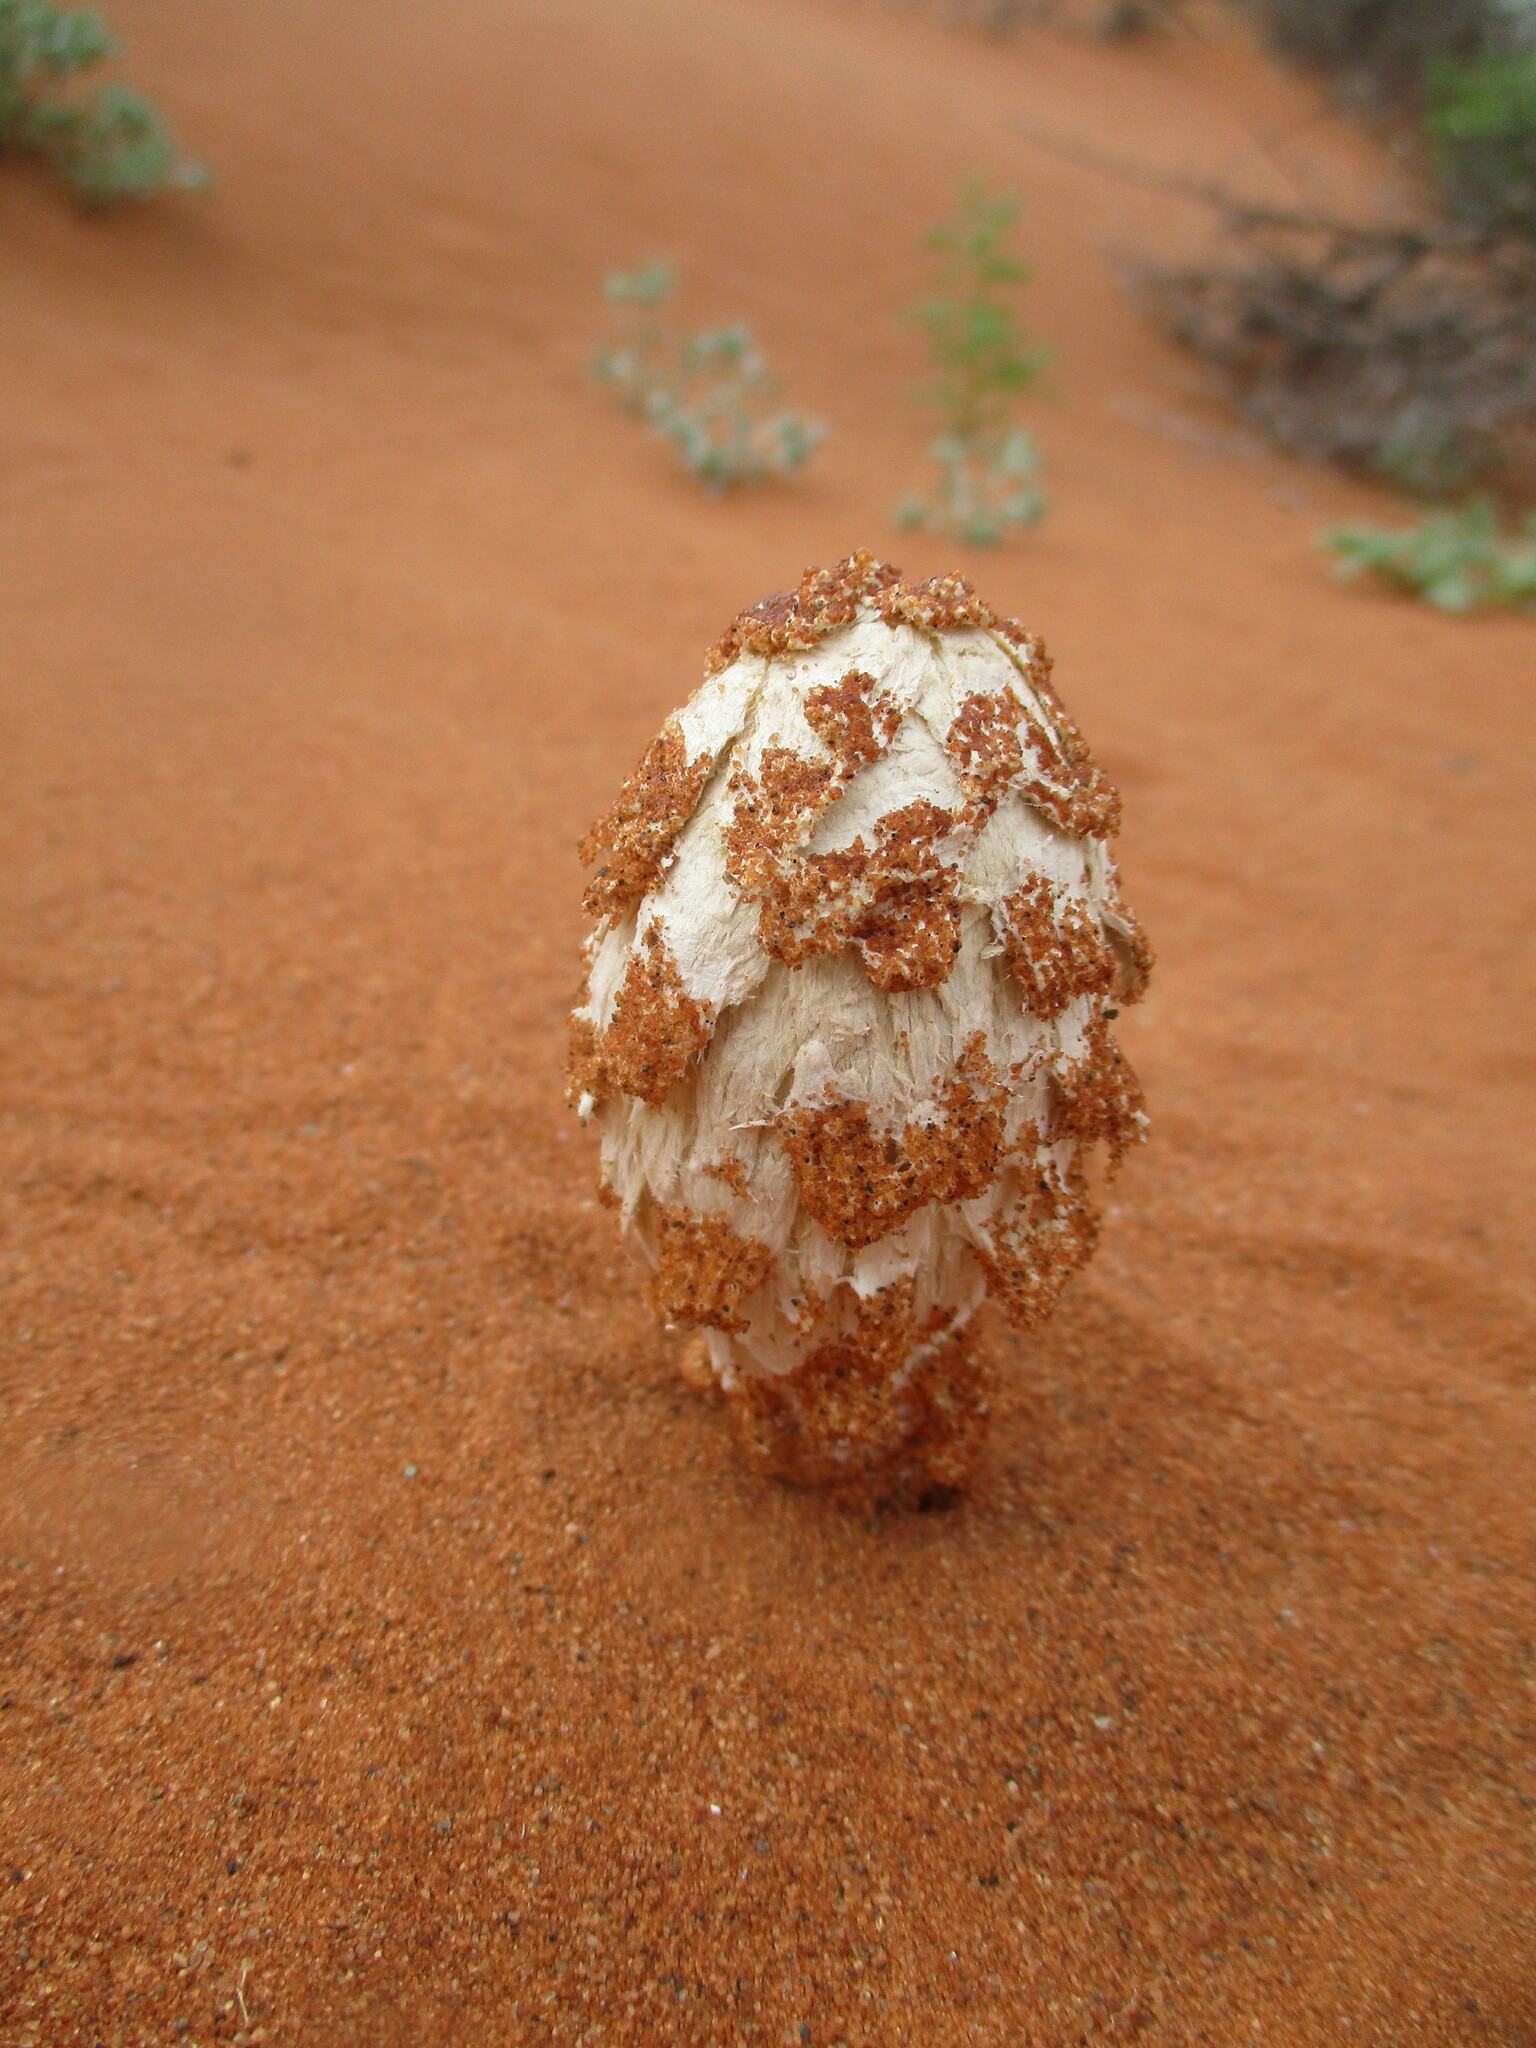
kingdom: Fungi
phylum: Basidiomycota
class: Agaricomycetes
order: Agaricales
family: Agaricaceae
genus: Podaxis
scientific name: Podaxis pistillaris
